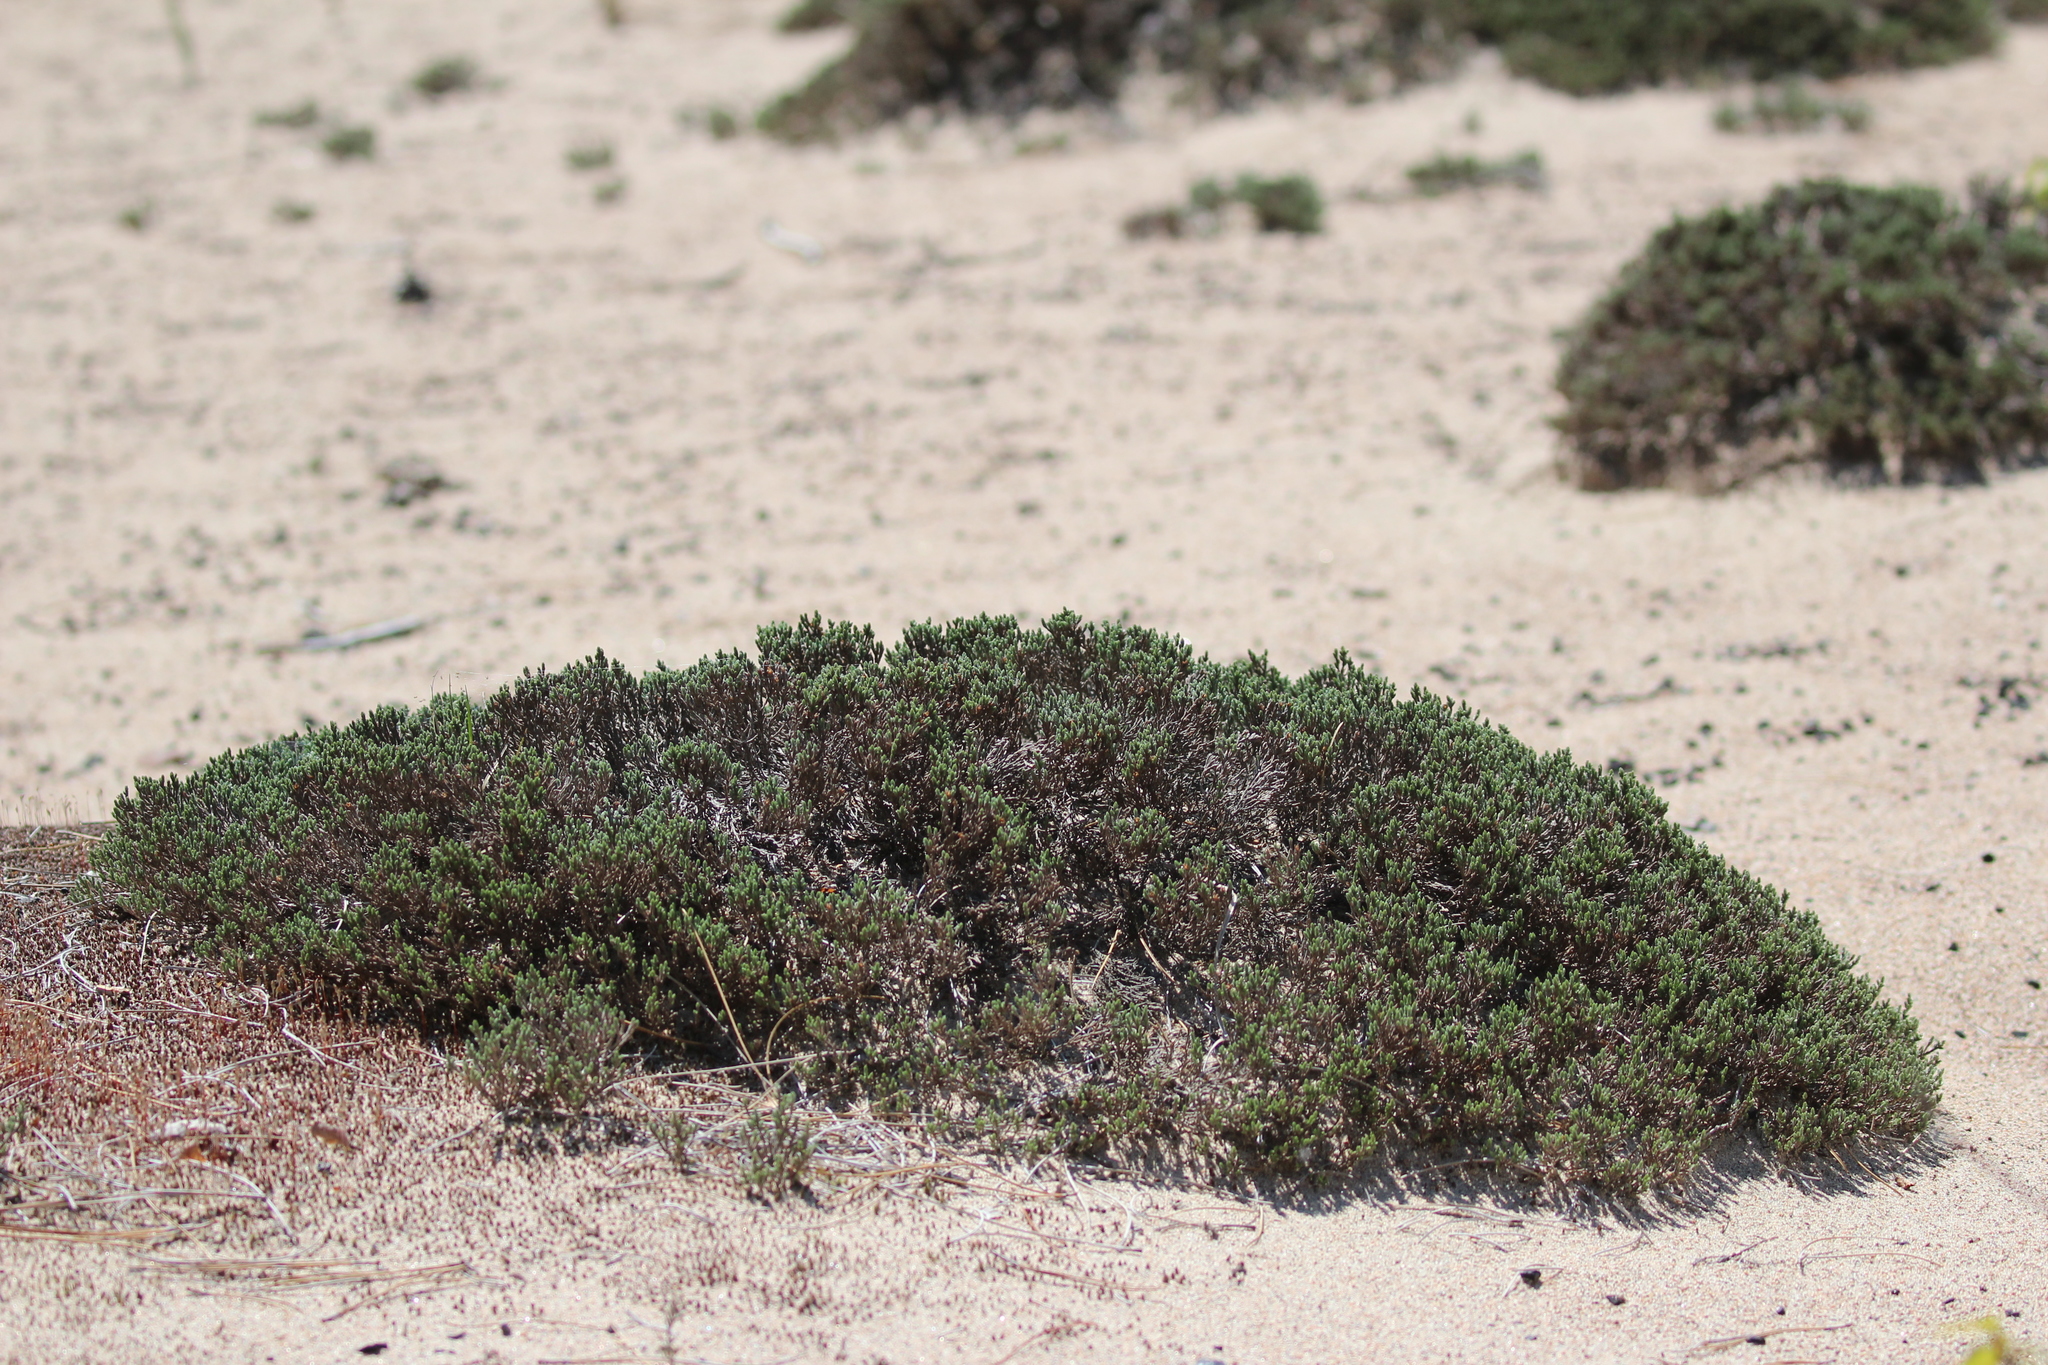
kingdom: Plantae
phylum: Tracheophyta
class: Magnoliopsida
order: Malvales
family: Cistaceae
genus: Hudsonia
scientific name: Hudsonia tomentosa
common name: Beach-heath
